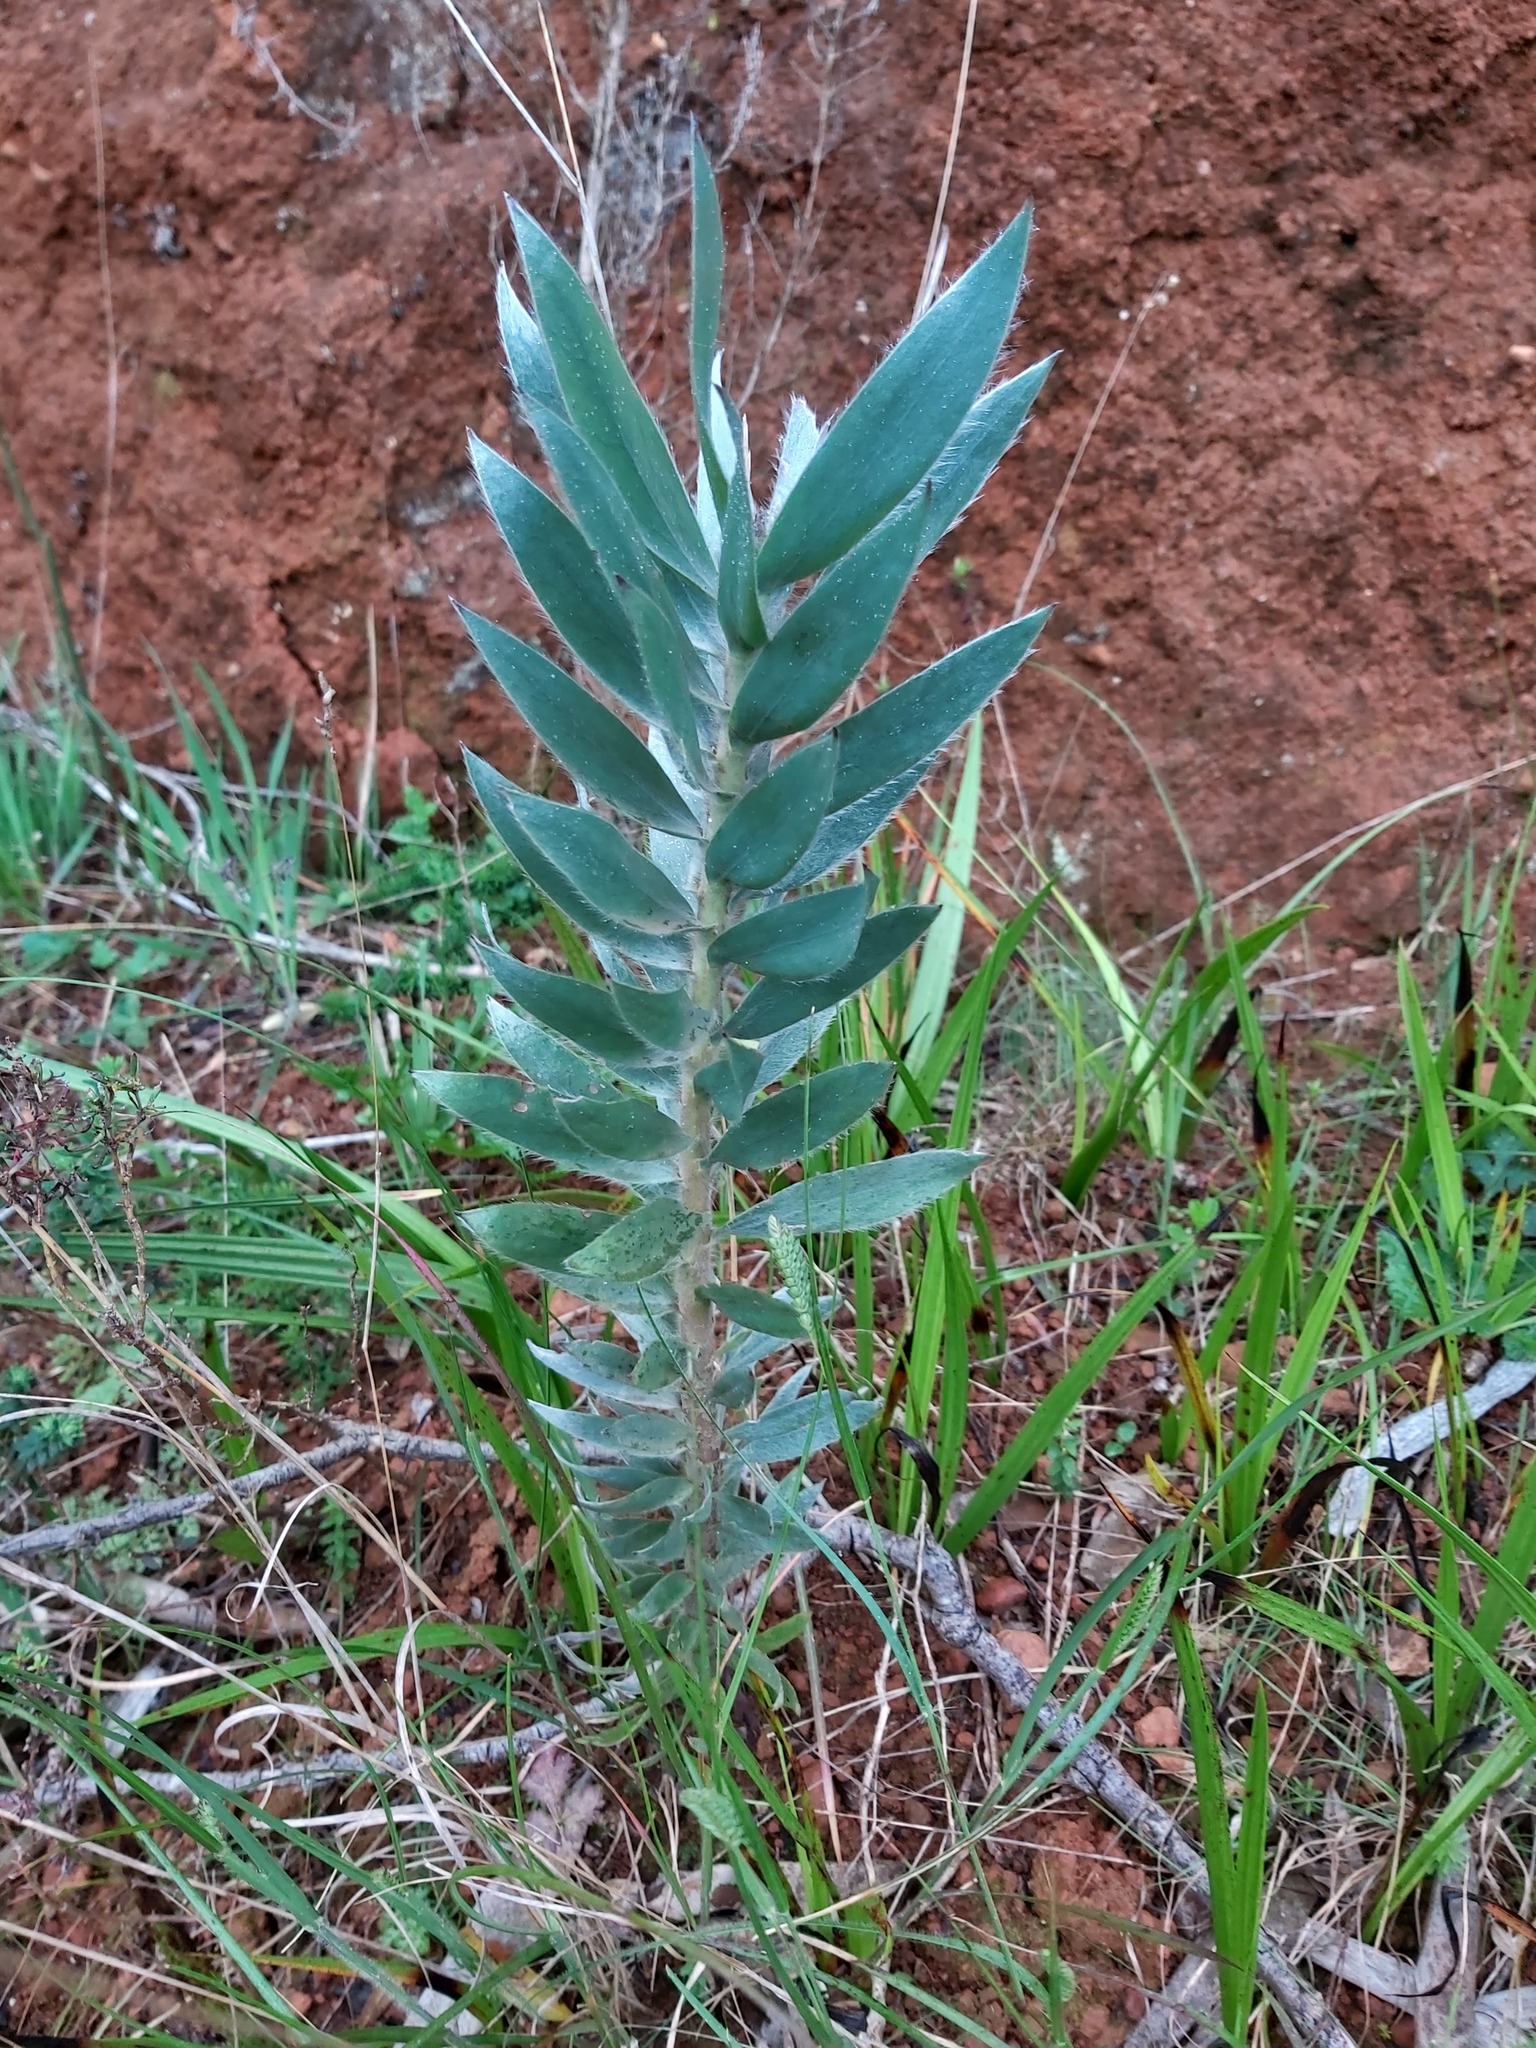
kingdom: Plantae
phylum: Tracheophyta
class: Magnoliopsida
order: Proteales
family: Proteaceae
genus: Leucadendron
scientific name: Leucadendron argenteum
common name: Cape silver tree
